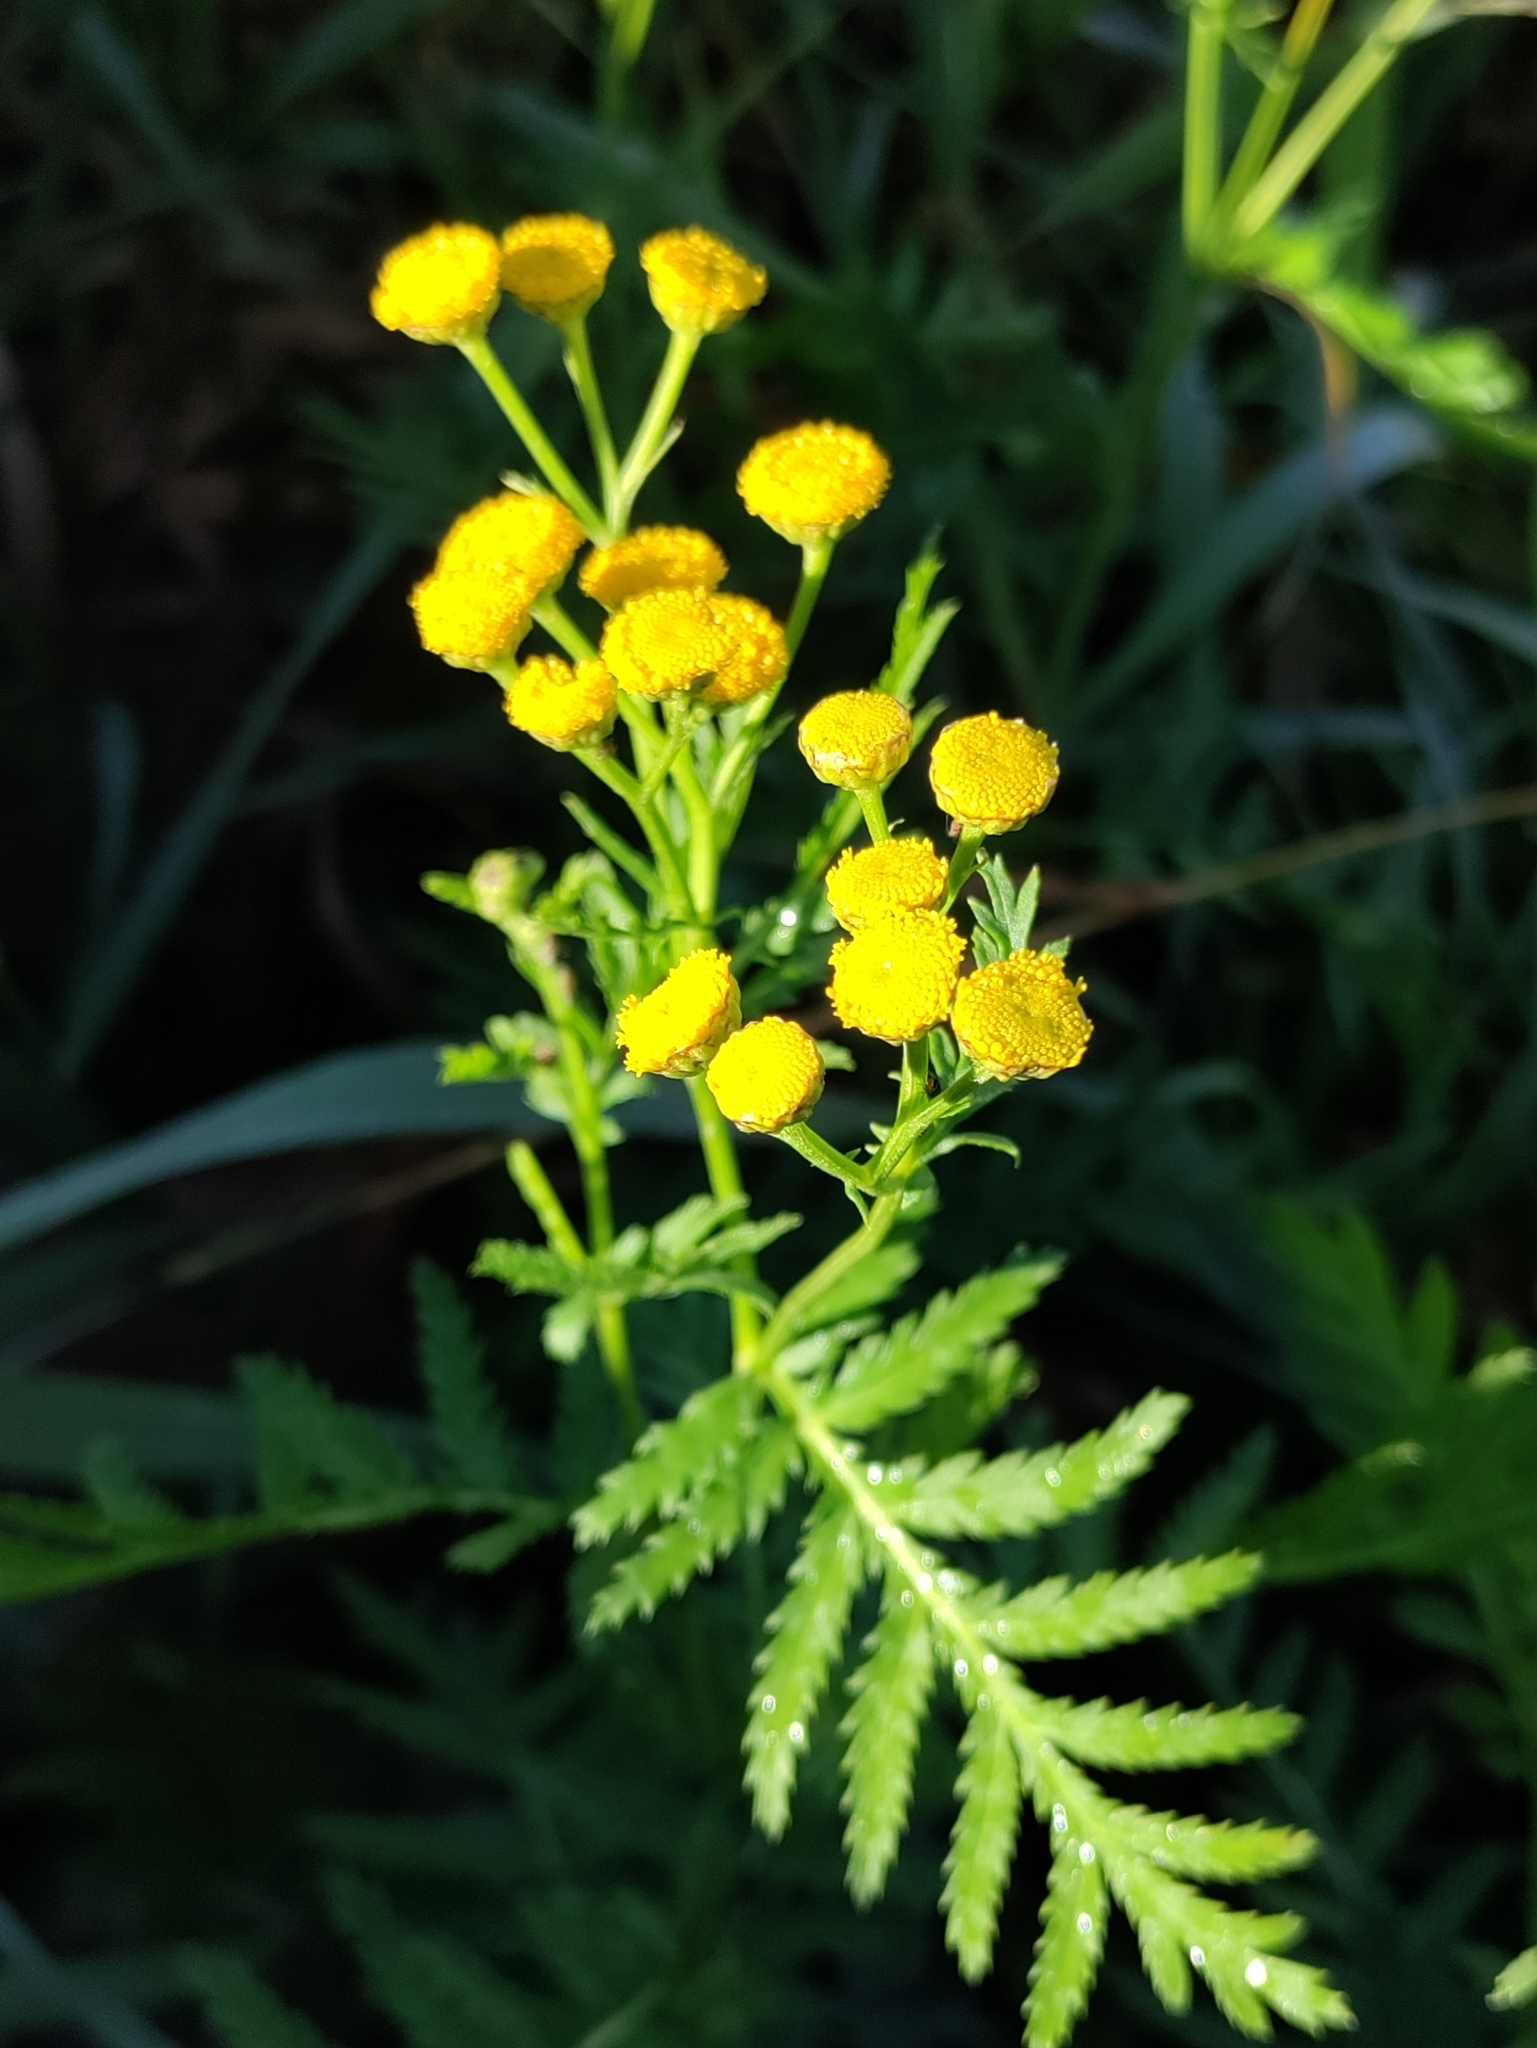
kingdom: Plantae
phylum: Tracheophyta
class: Magnoliopsida
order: Asterales
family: Asteraceae
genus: Tanacetum
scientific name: Tanacetum vulgare
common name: Common tansy
